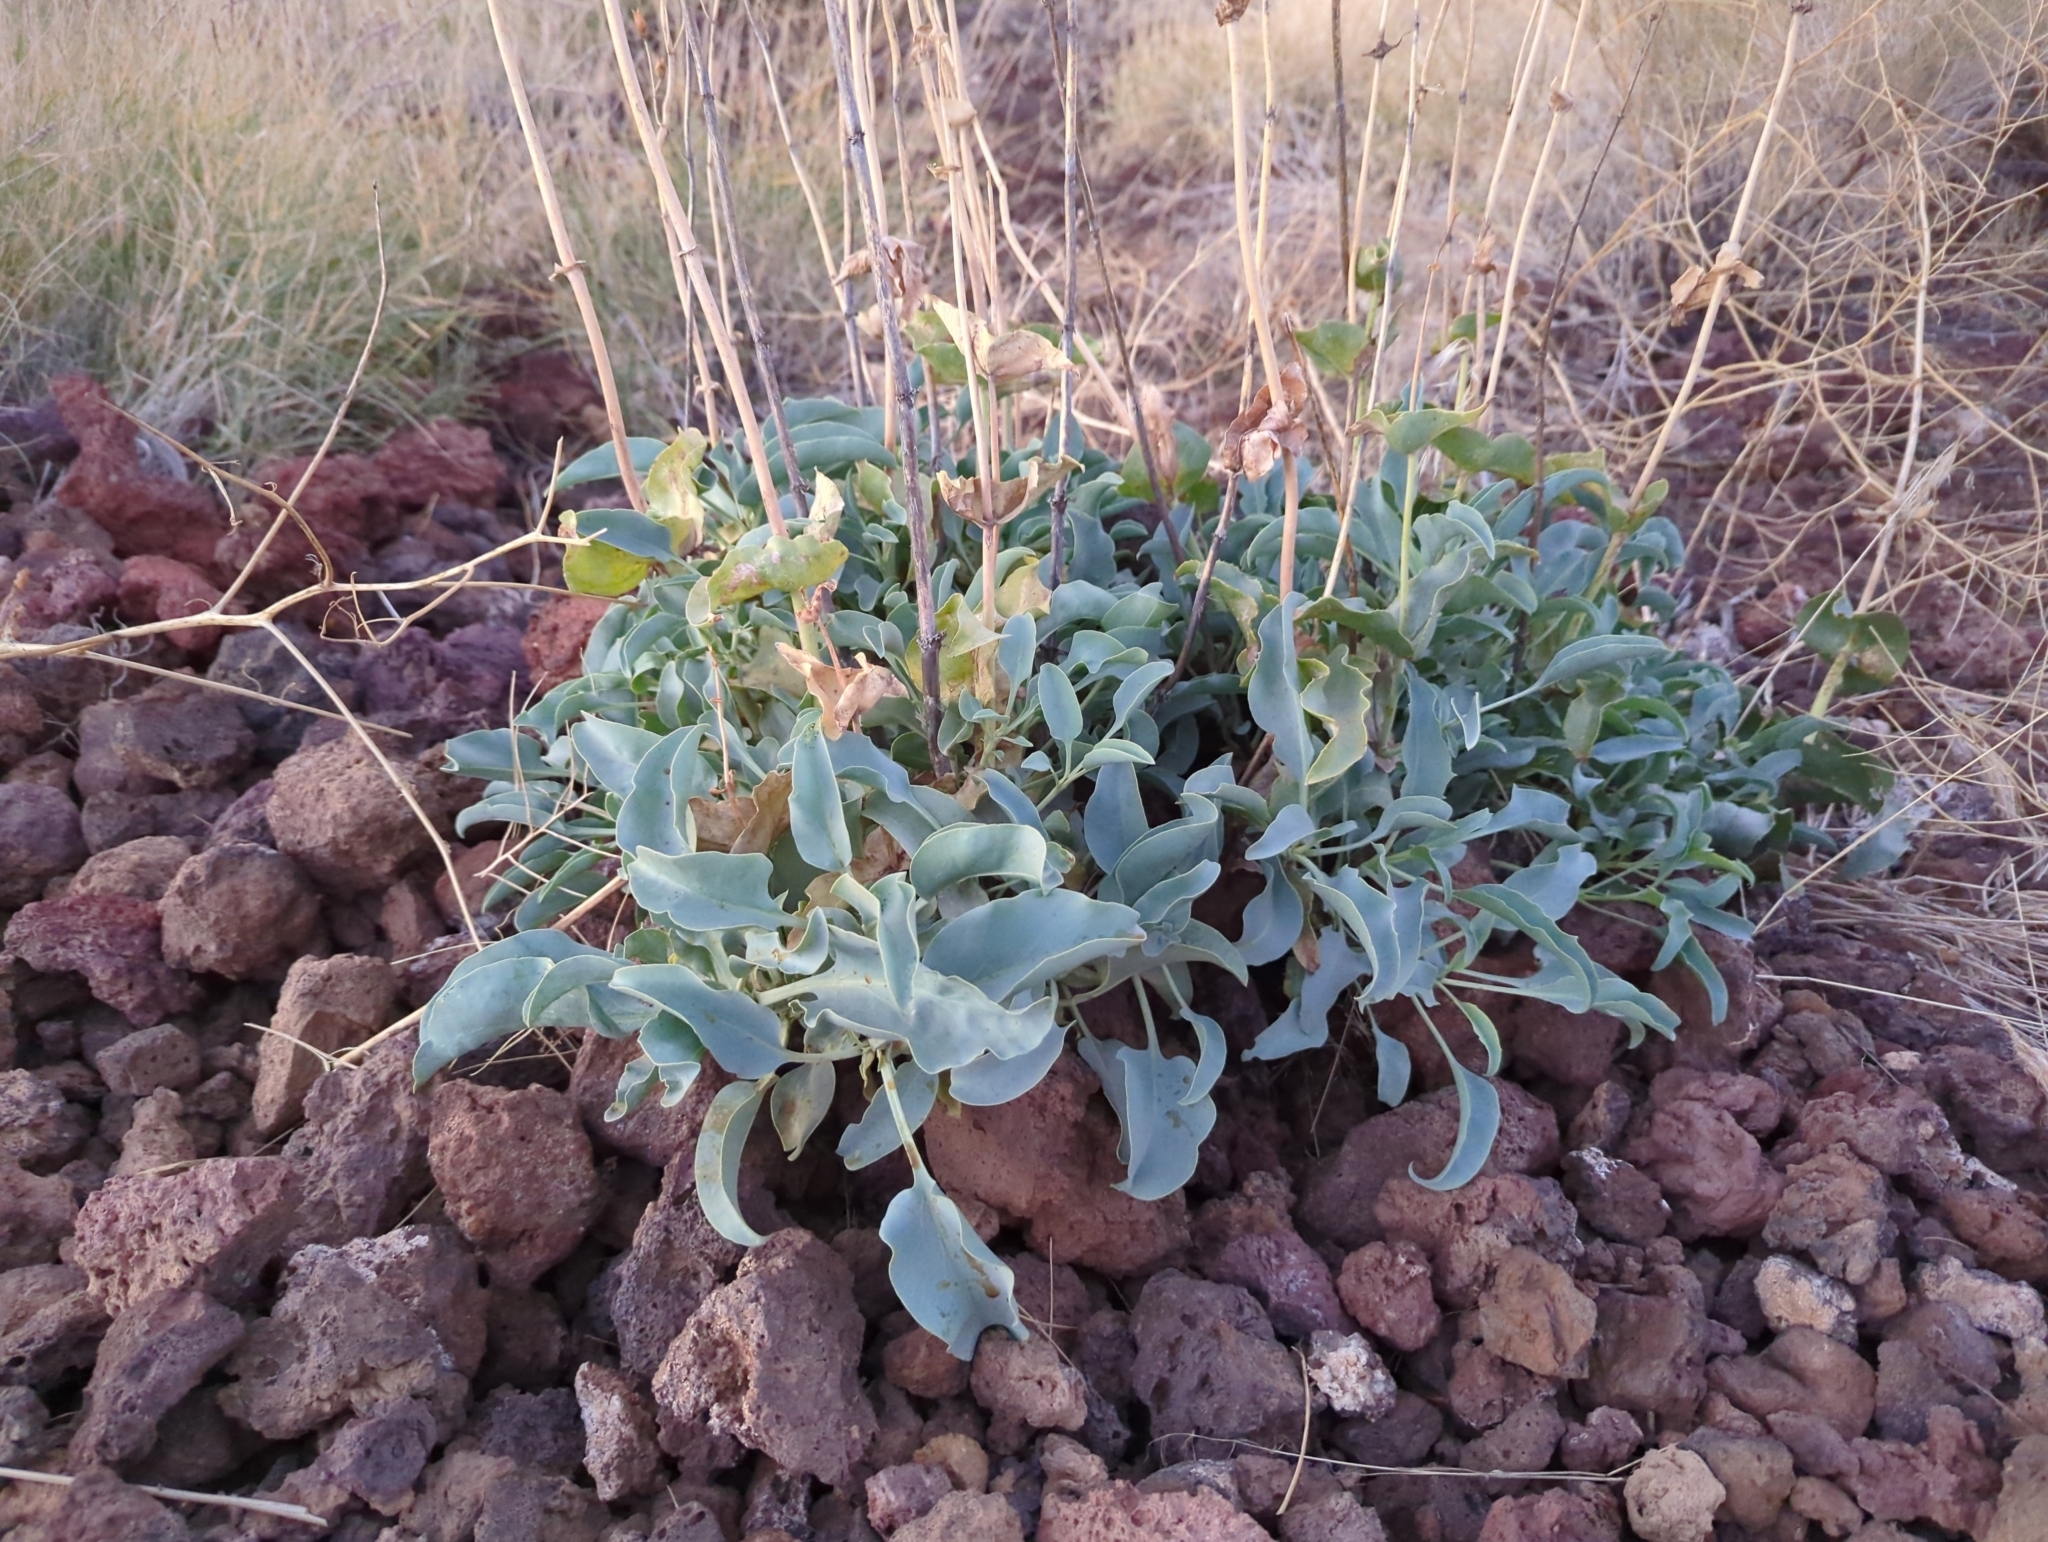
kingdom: Plantae
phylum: Tracheophyta
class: Magnoliopsida
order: Lamiales
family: Plantaginaceae
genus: Penstemon
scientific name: Penstemon palmeri
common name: Palmer penstemon
